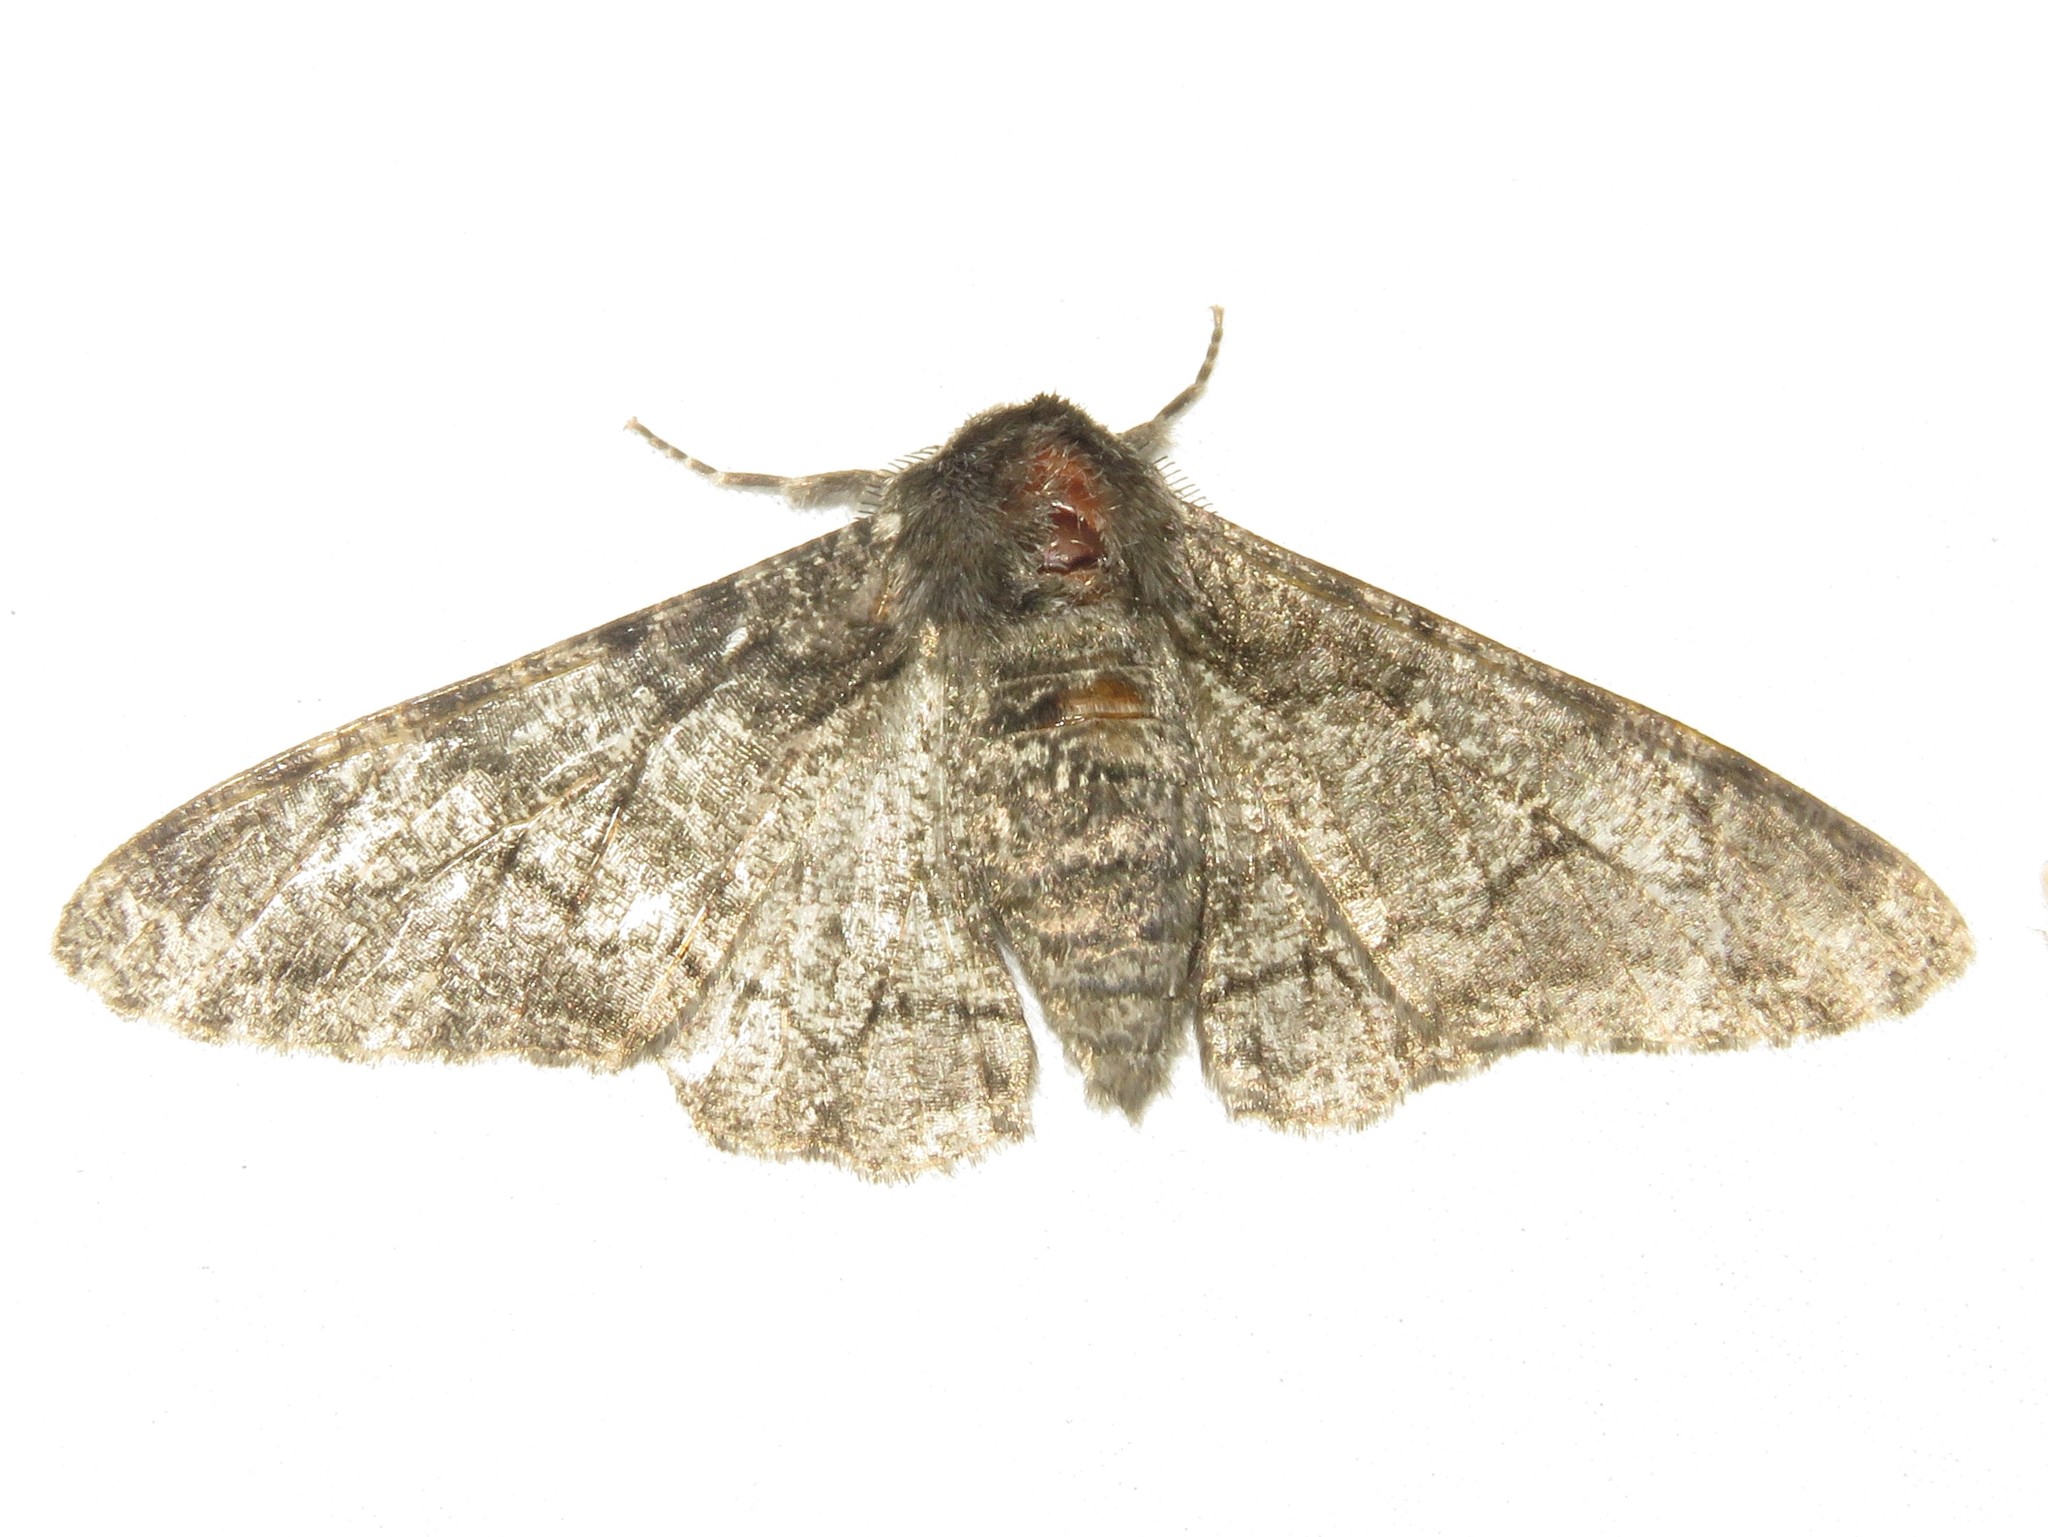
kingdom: Animalia
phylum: Arthropoda
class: Insecta
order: Lepidoptera
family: Geometridae
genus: Biston
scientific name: Biston betularia
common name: Peppered moth
